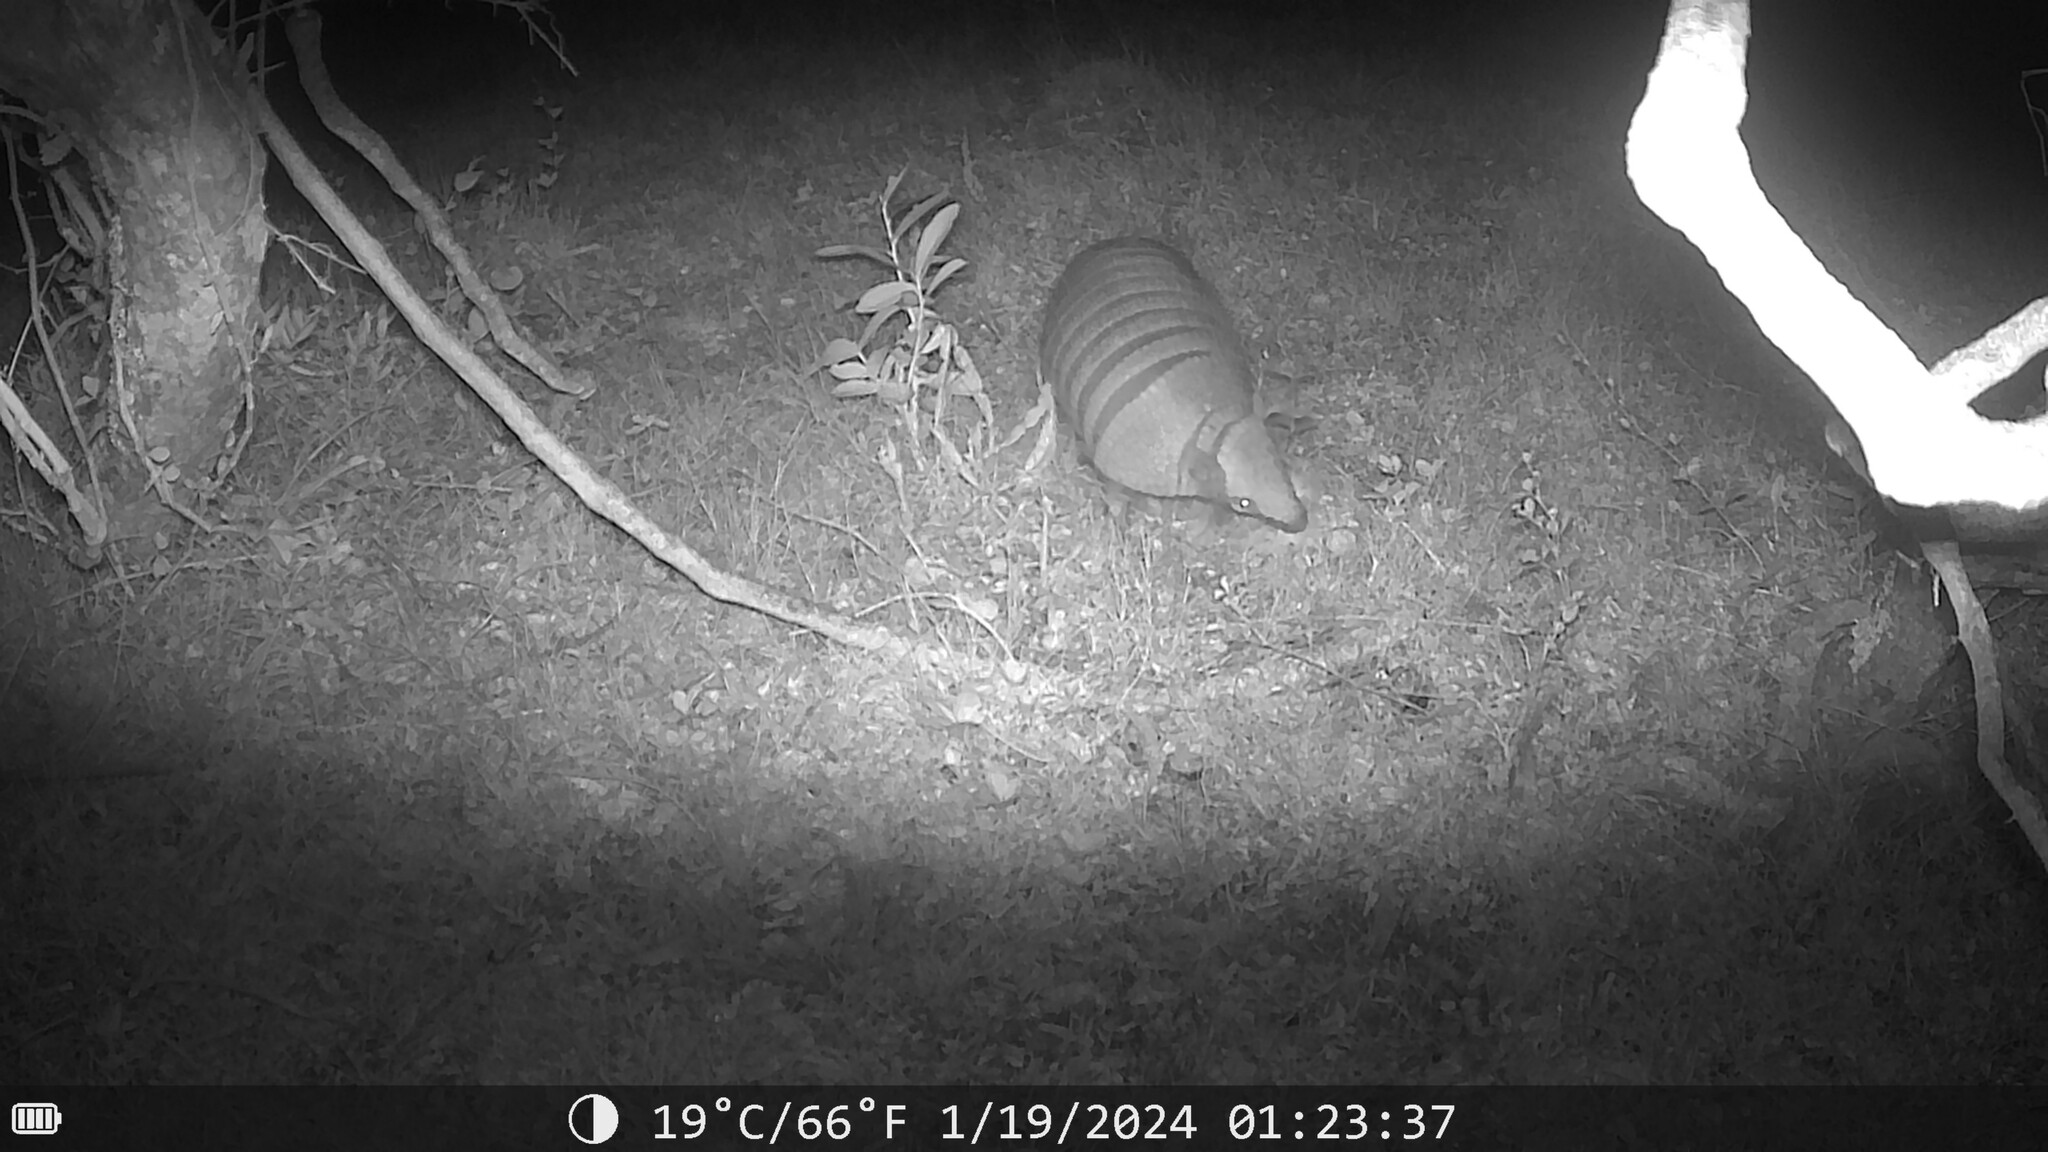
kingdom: Animalia
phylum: Chordata
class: Mammalia
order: Cingulata
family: Dasypodidae
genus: Euphractus
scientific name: Euphractus sexcinctus
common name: Six-banded armadillo
